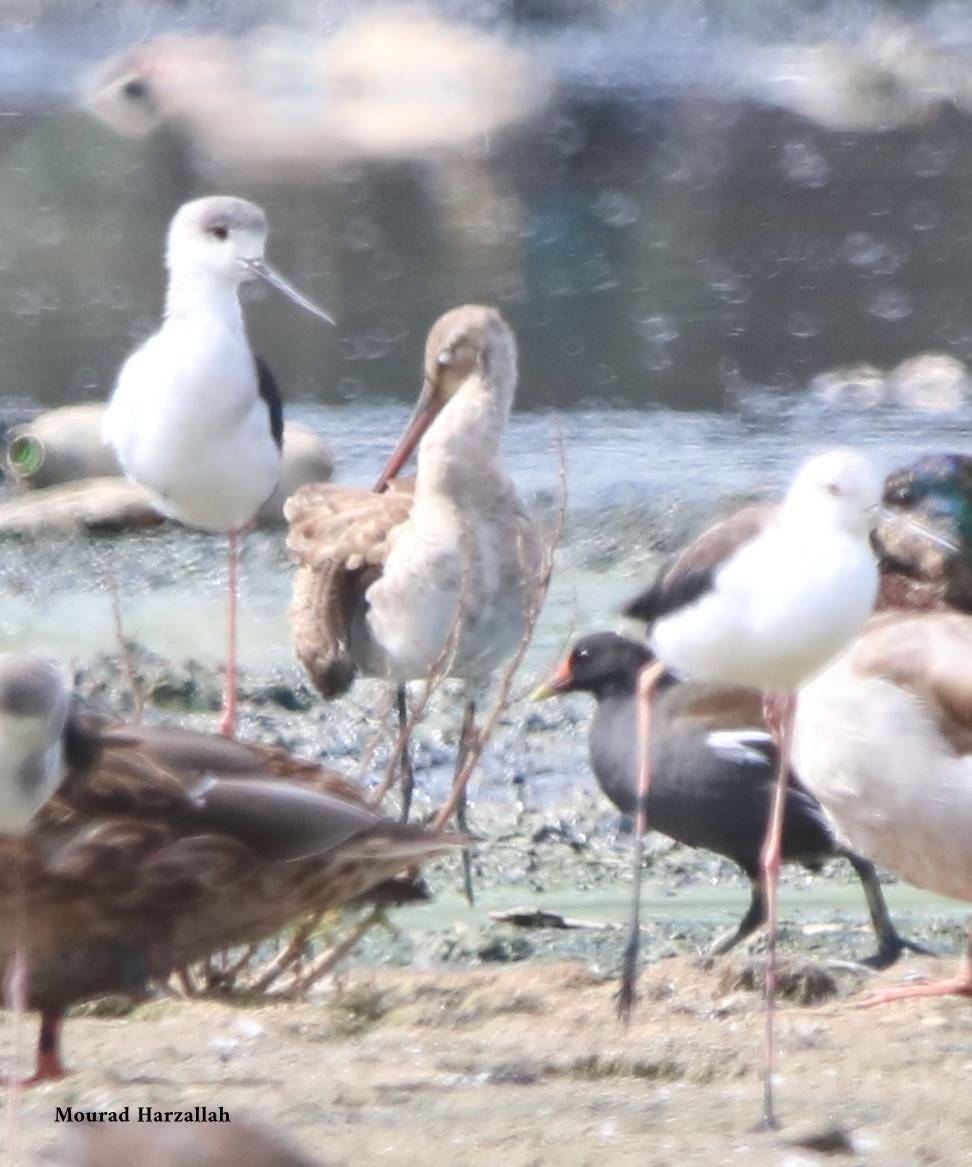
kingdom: Animalia
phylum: Chordata
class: Aves
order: Charadriiformes
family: Recurvirostridae
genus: Himantopus
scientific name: Himantopus himantopus
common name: Black-winged stilt
